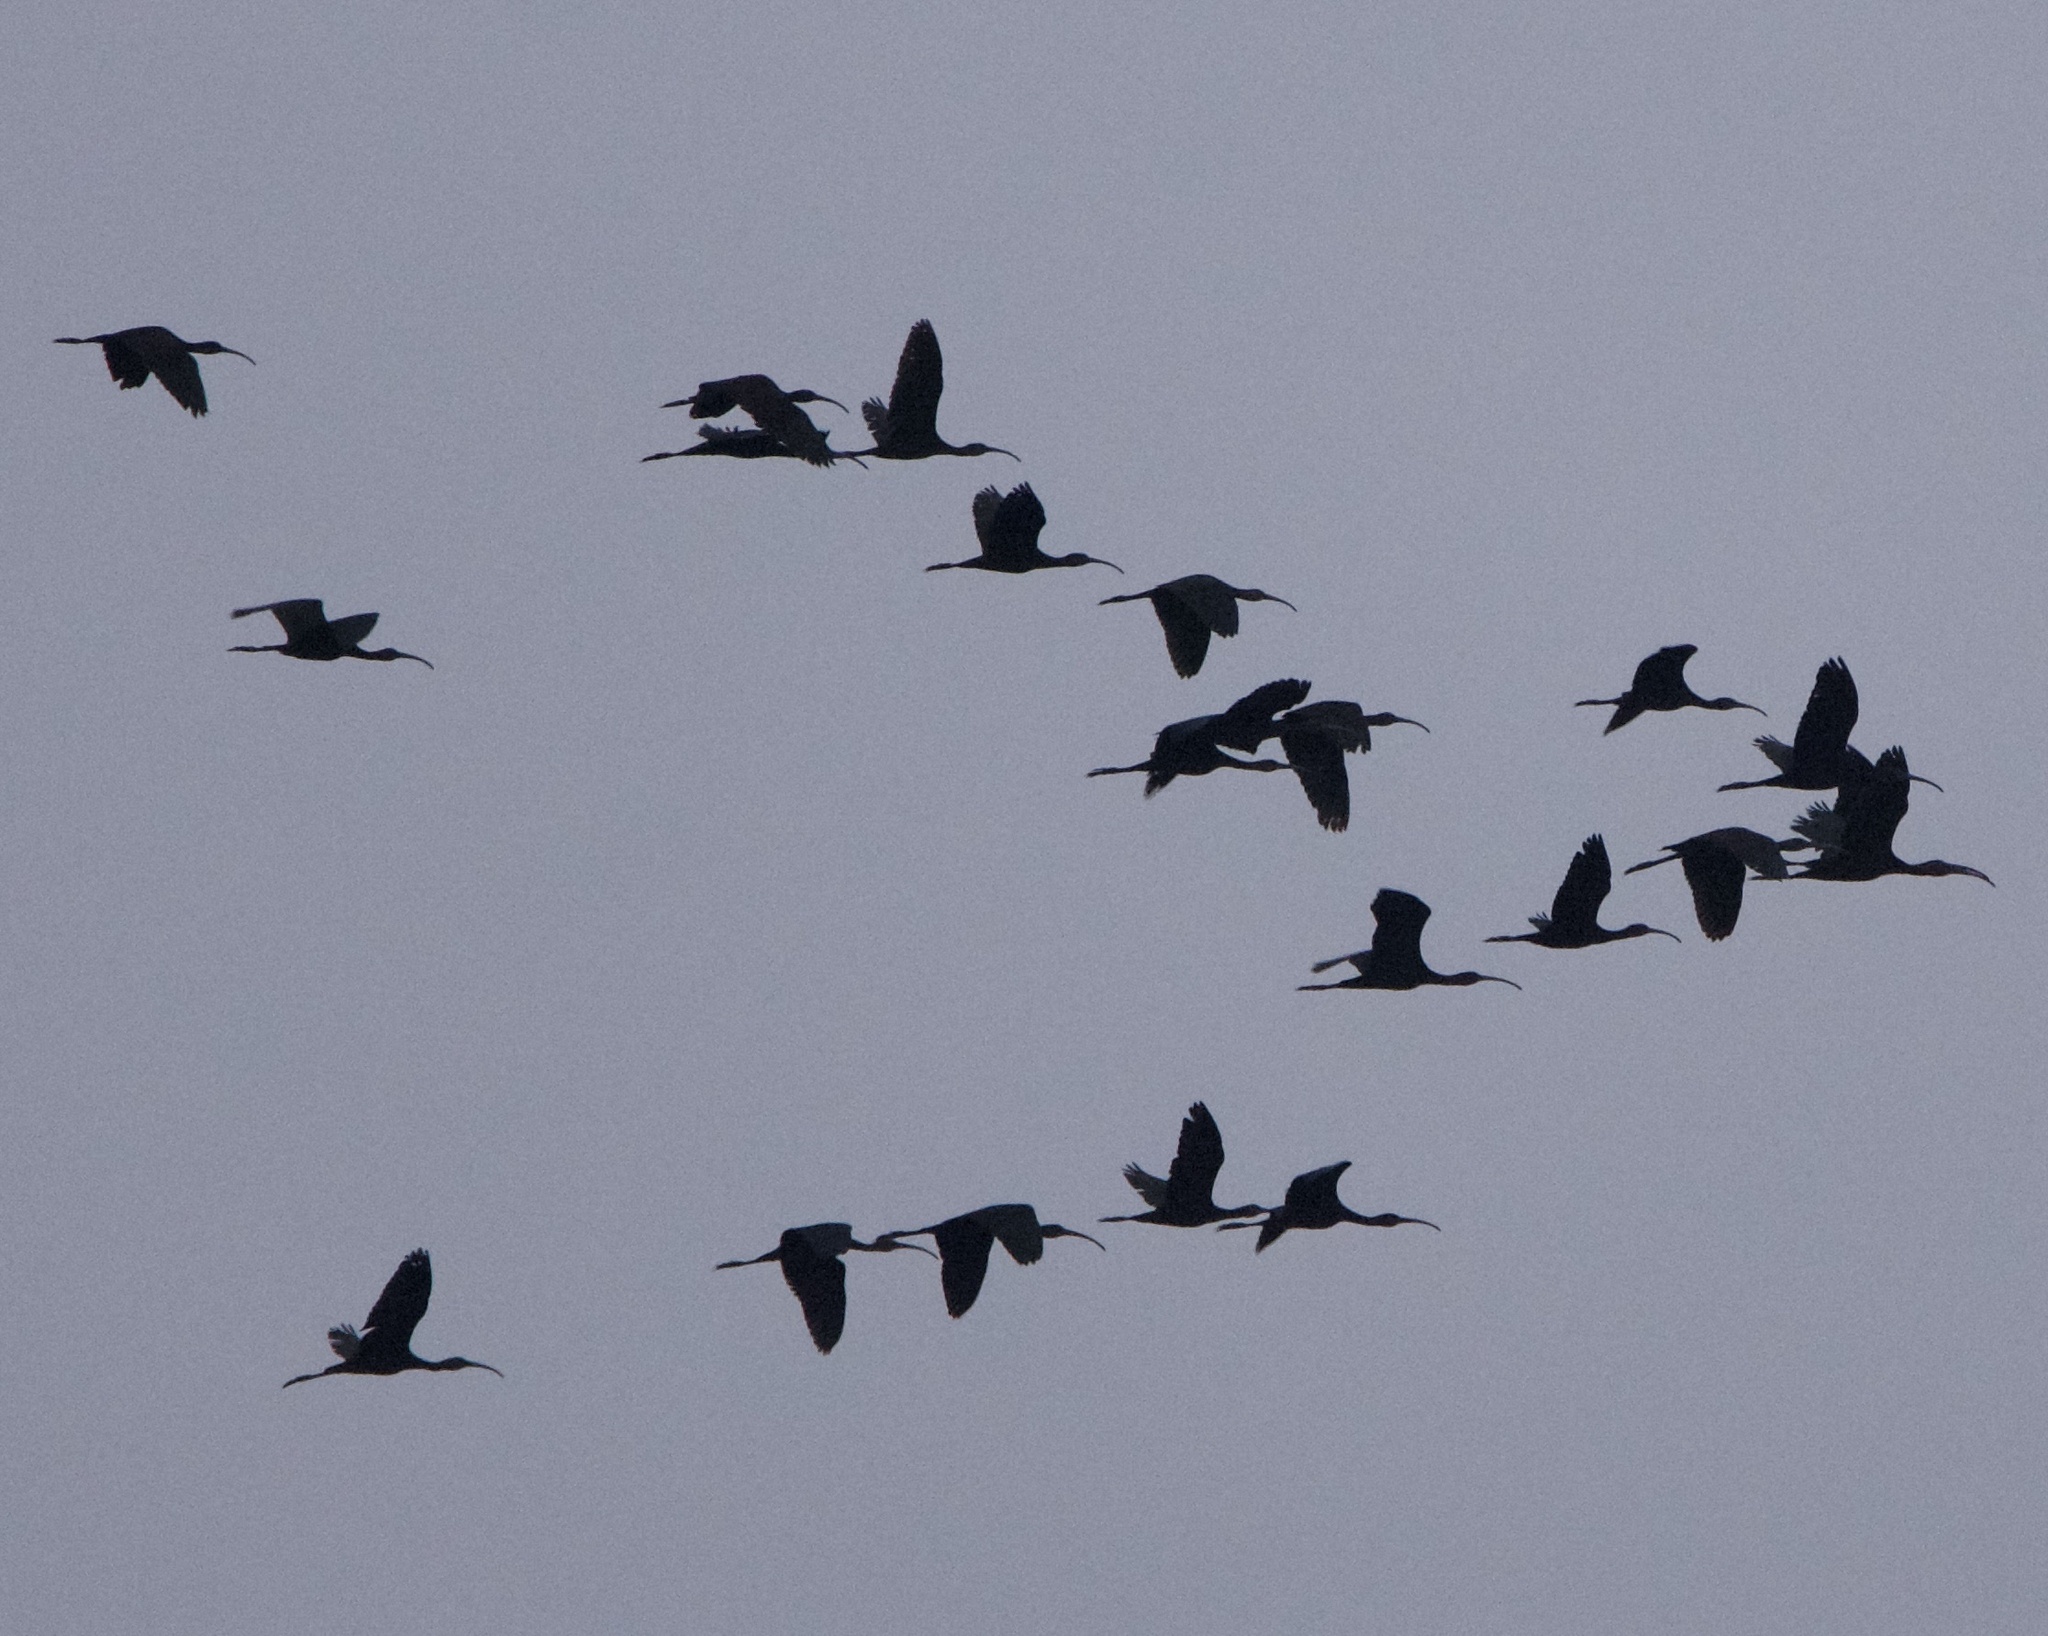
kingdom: Animalia
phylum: Chordata
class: Aves
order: Pelecaniformes
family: Threskiornithidae
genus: Plegadis
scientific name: Plegadis chihi
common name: White-faced ibis
